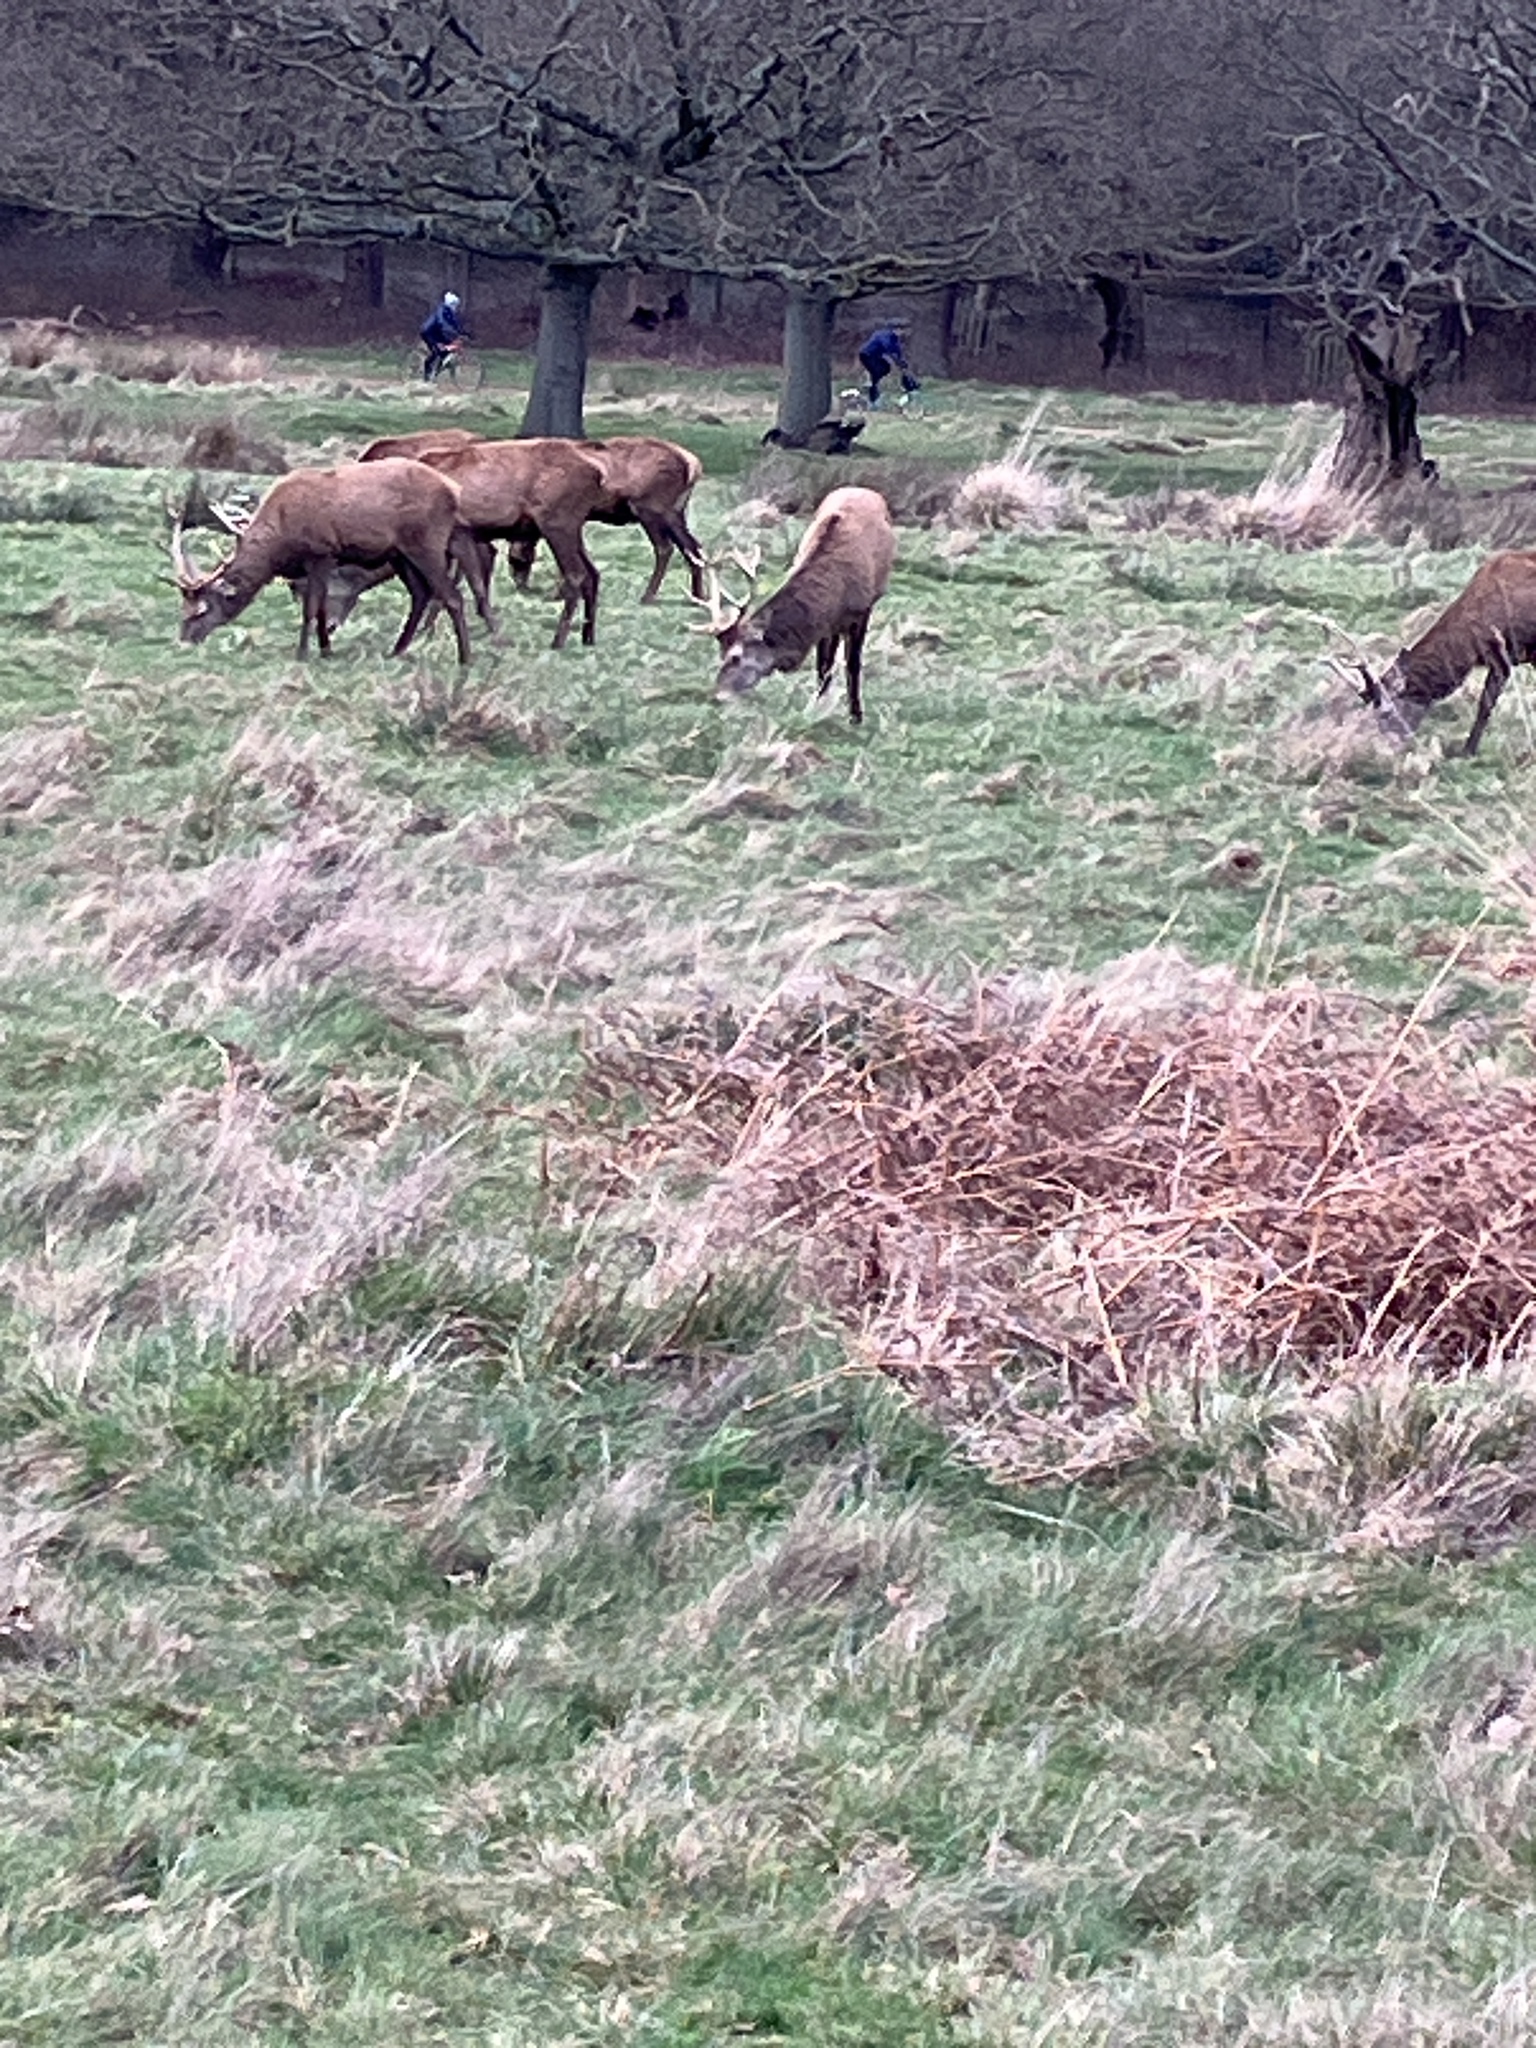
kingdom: Animalia
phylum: Chordata
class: Mammalia
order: Artiodactyla
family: Cervidae
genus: Cervus
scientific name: Cervus elaphus
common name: Red deer
